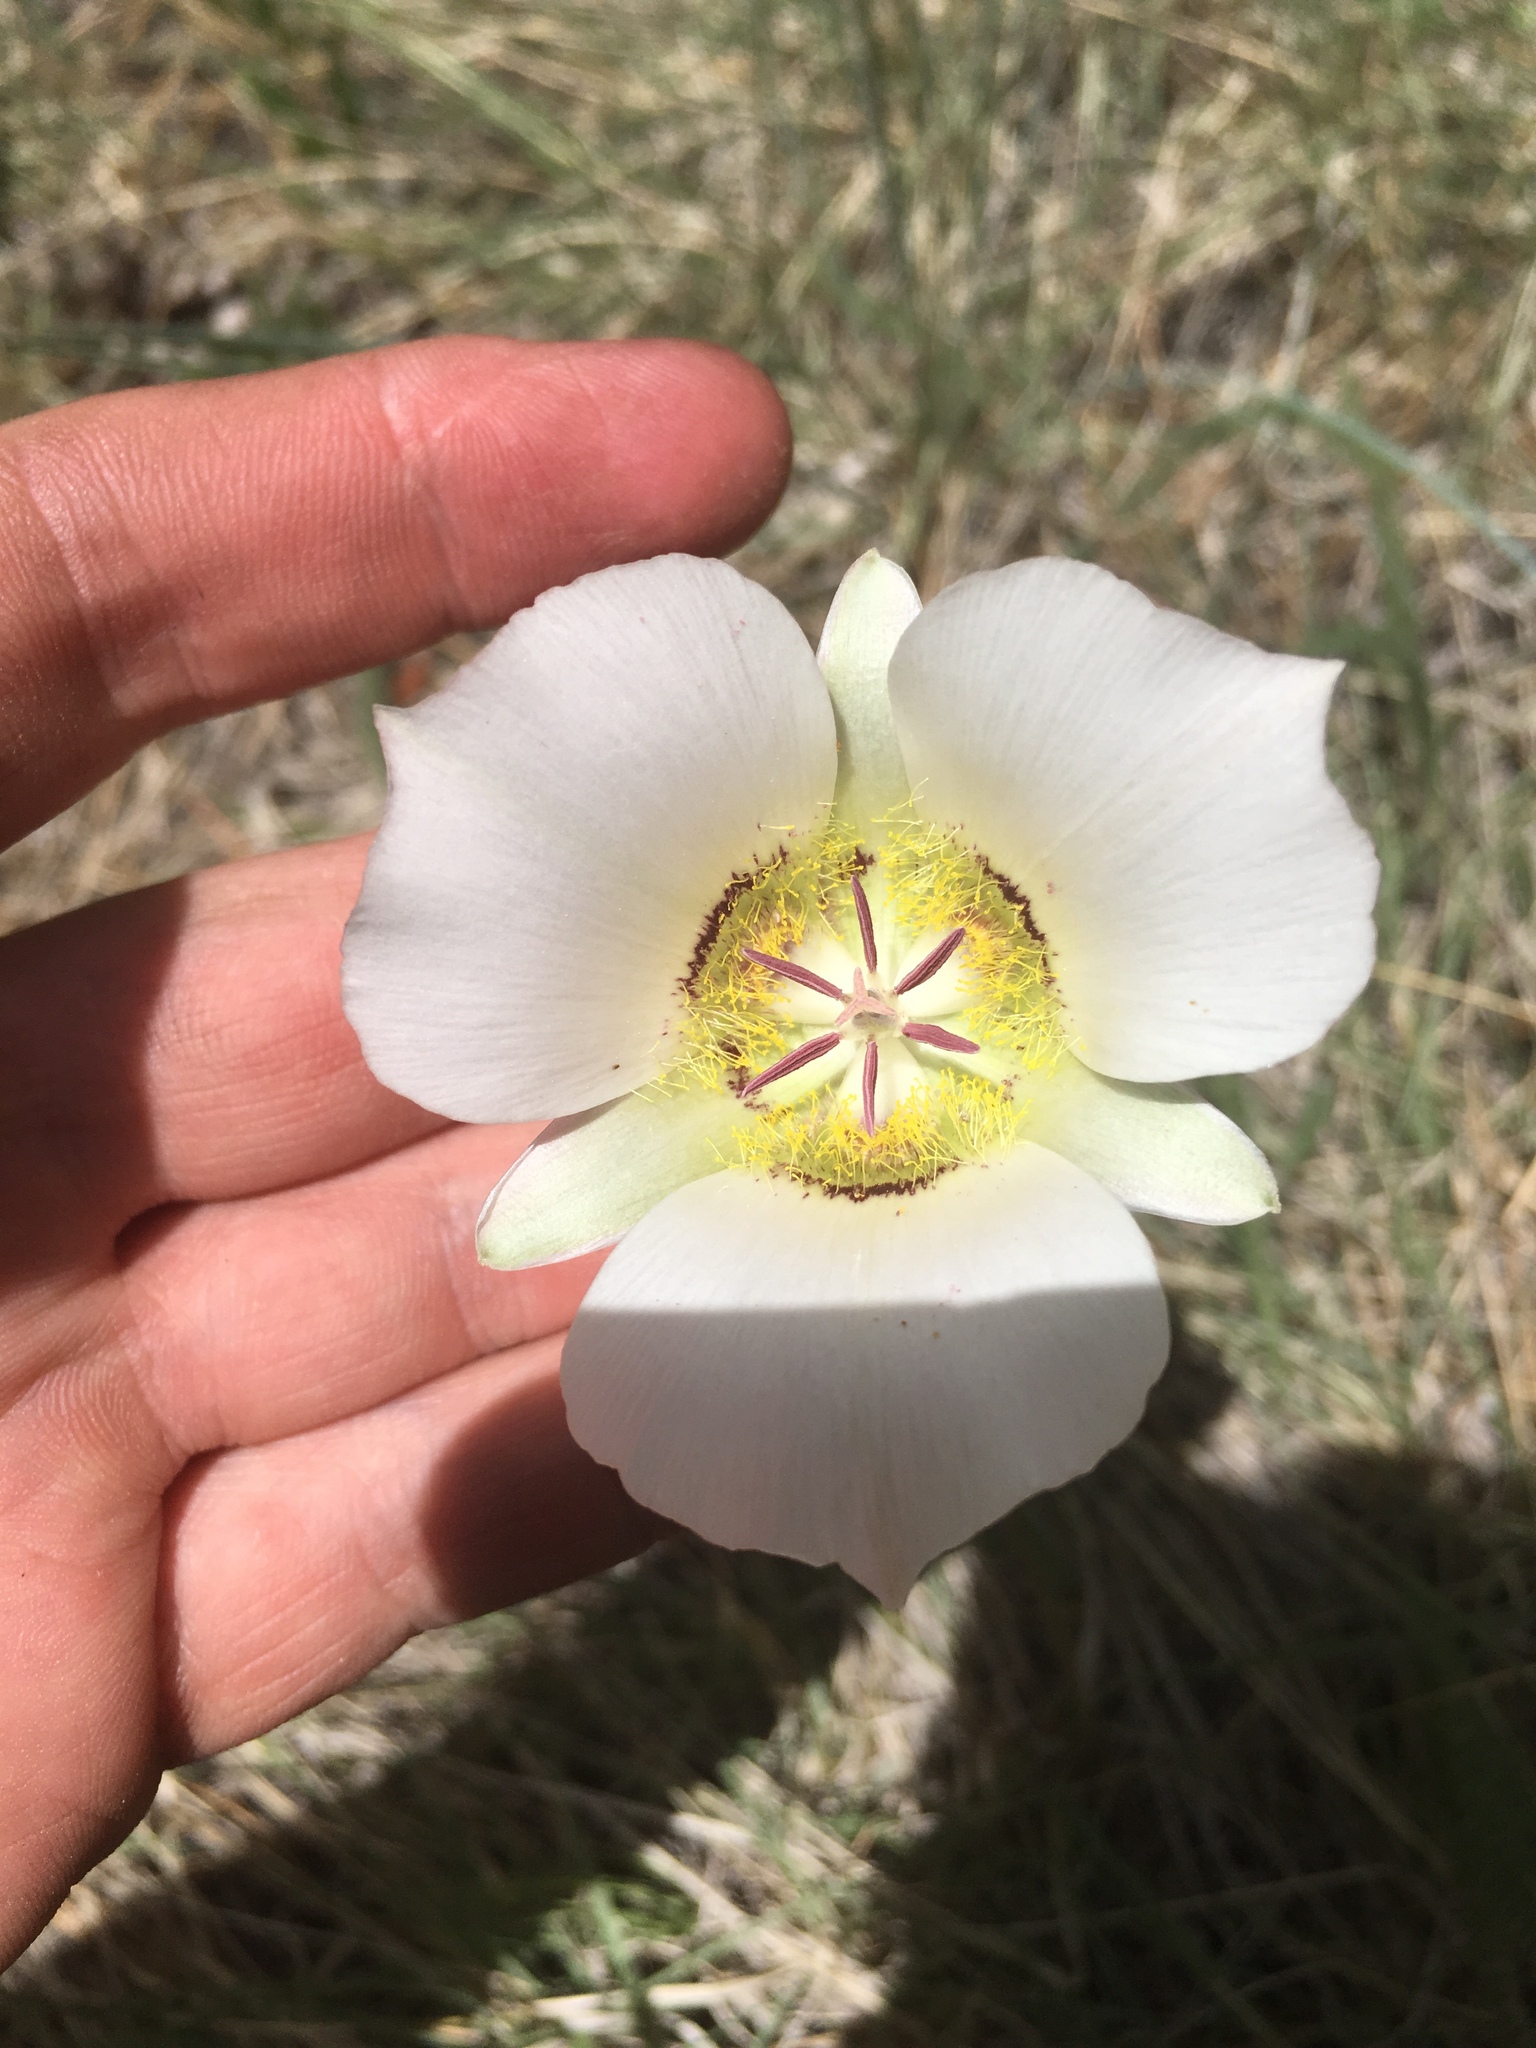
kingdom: Plantae
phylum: Tracheophyta
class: Liliopsida
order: Liliales
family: Liliaceae
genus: Calochortus
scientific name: Calochortus ambiguus
